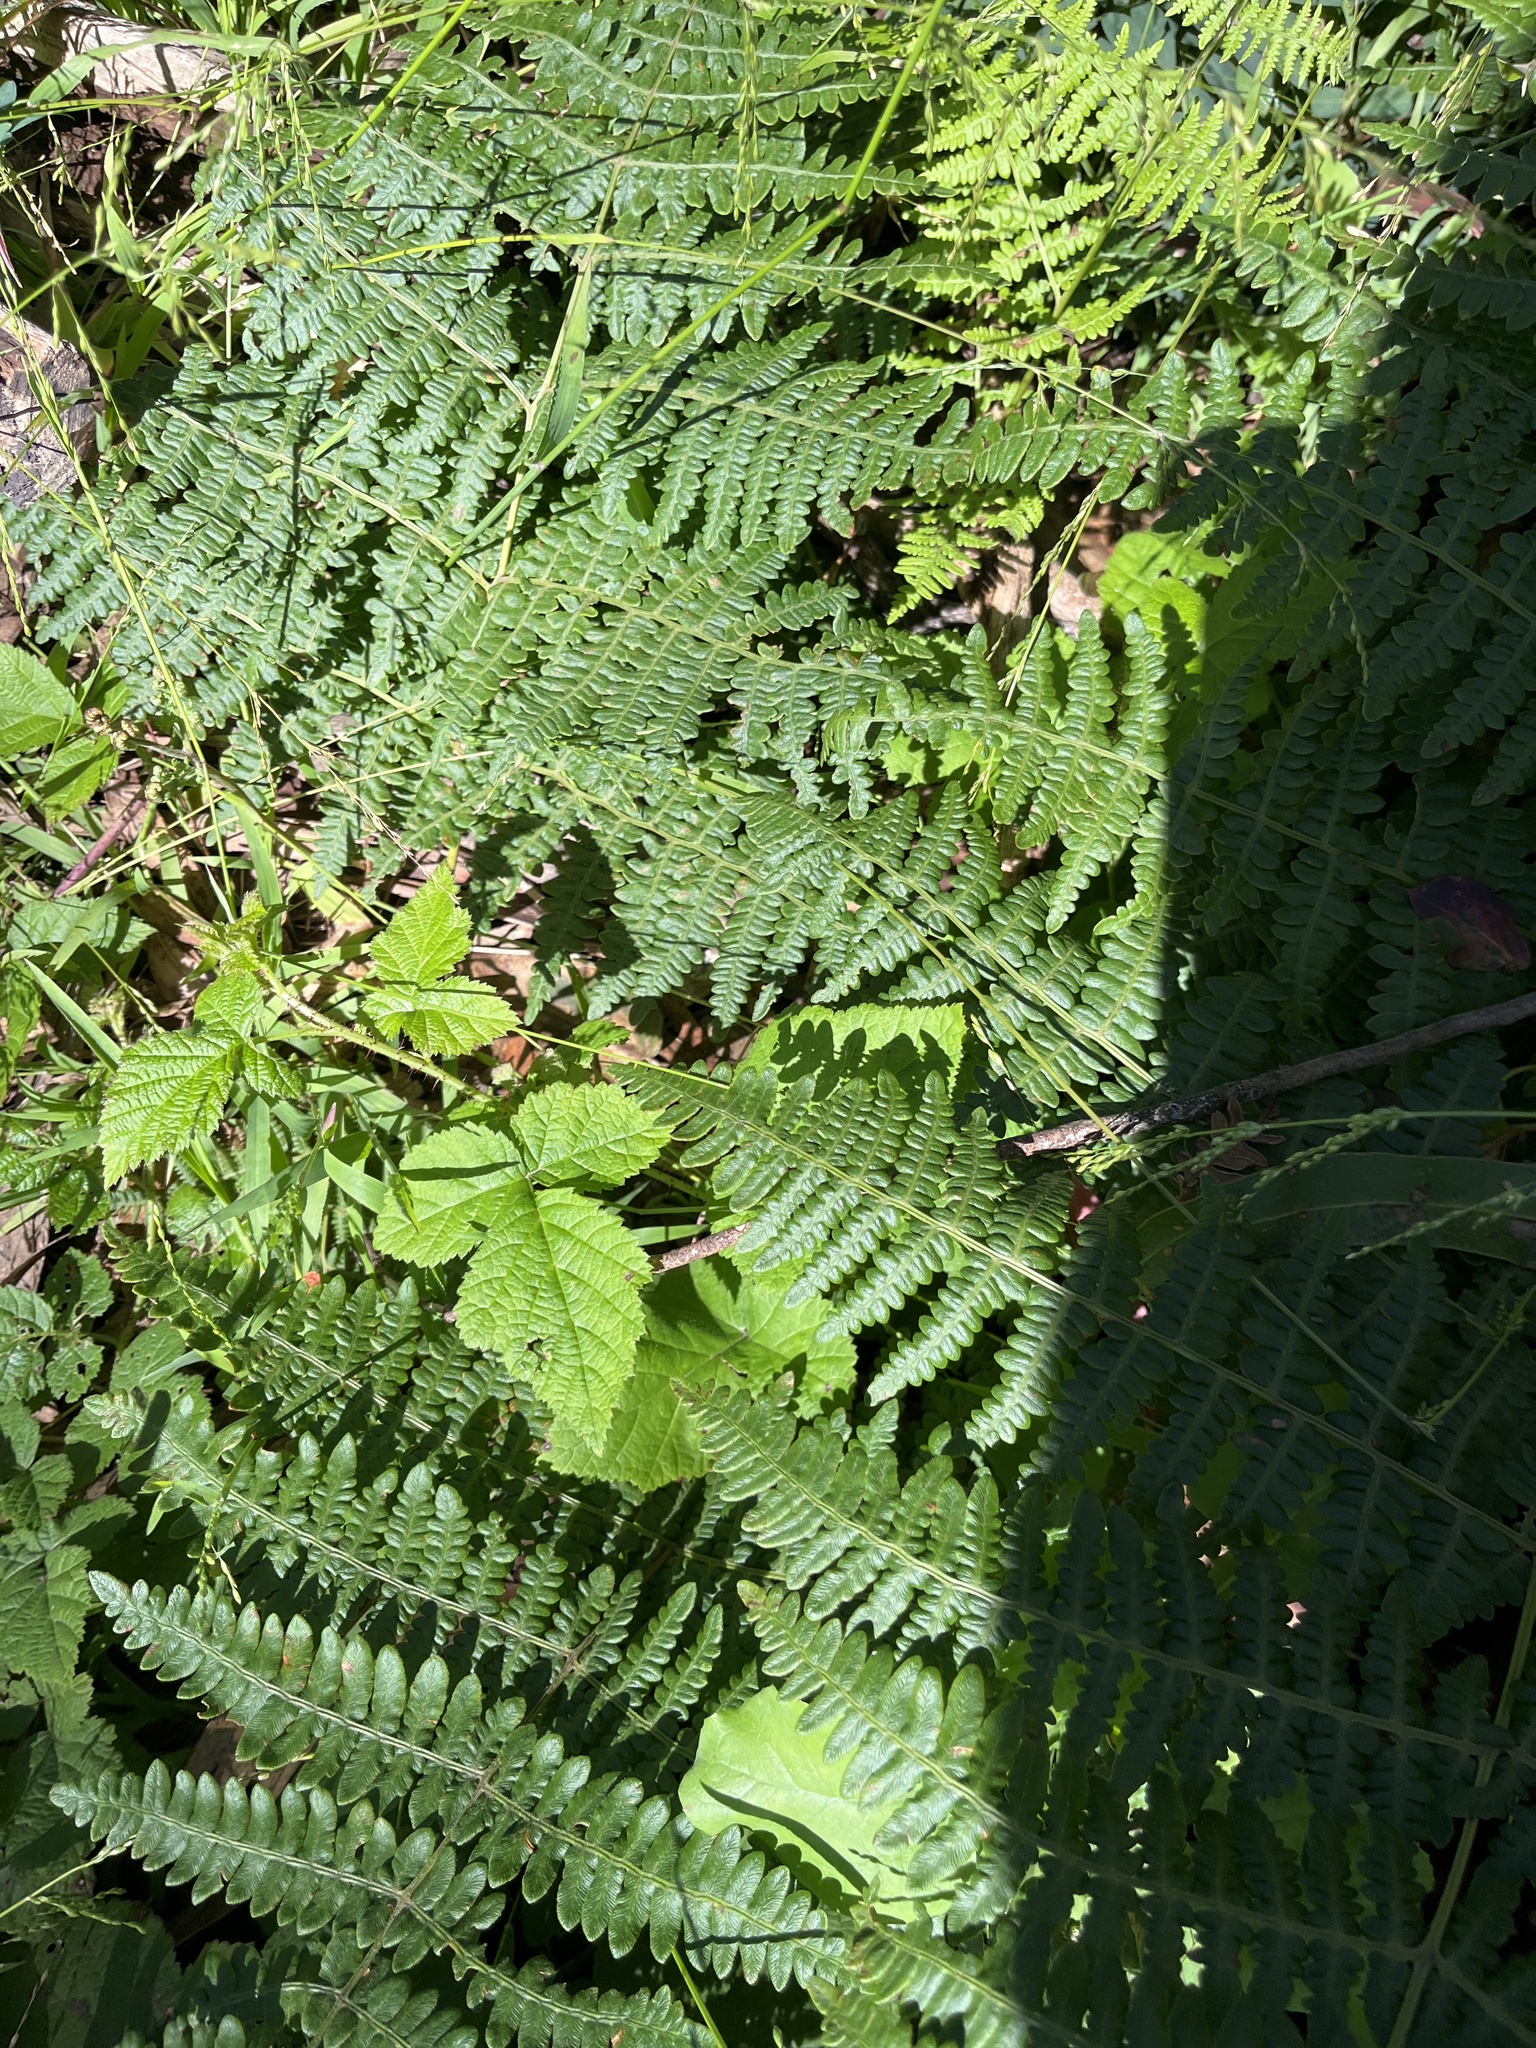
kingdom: Plantae
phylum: Tracheophyta
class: Polypodiopsida
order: Polypodiales
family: Dennstaedtiaceae
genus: Pteridium
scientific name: Pteridium aquilinum
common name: Bracken
